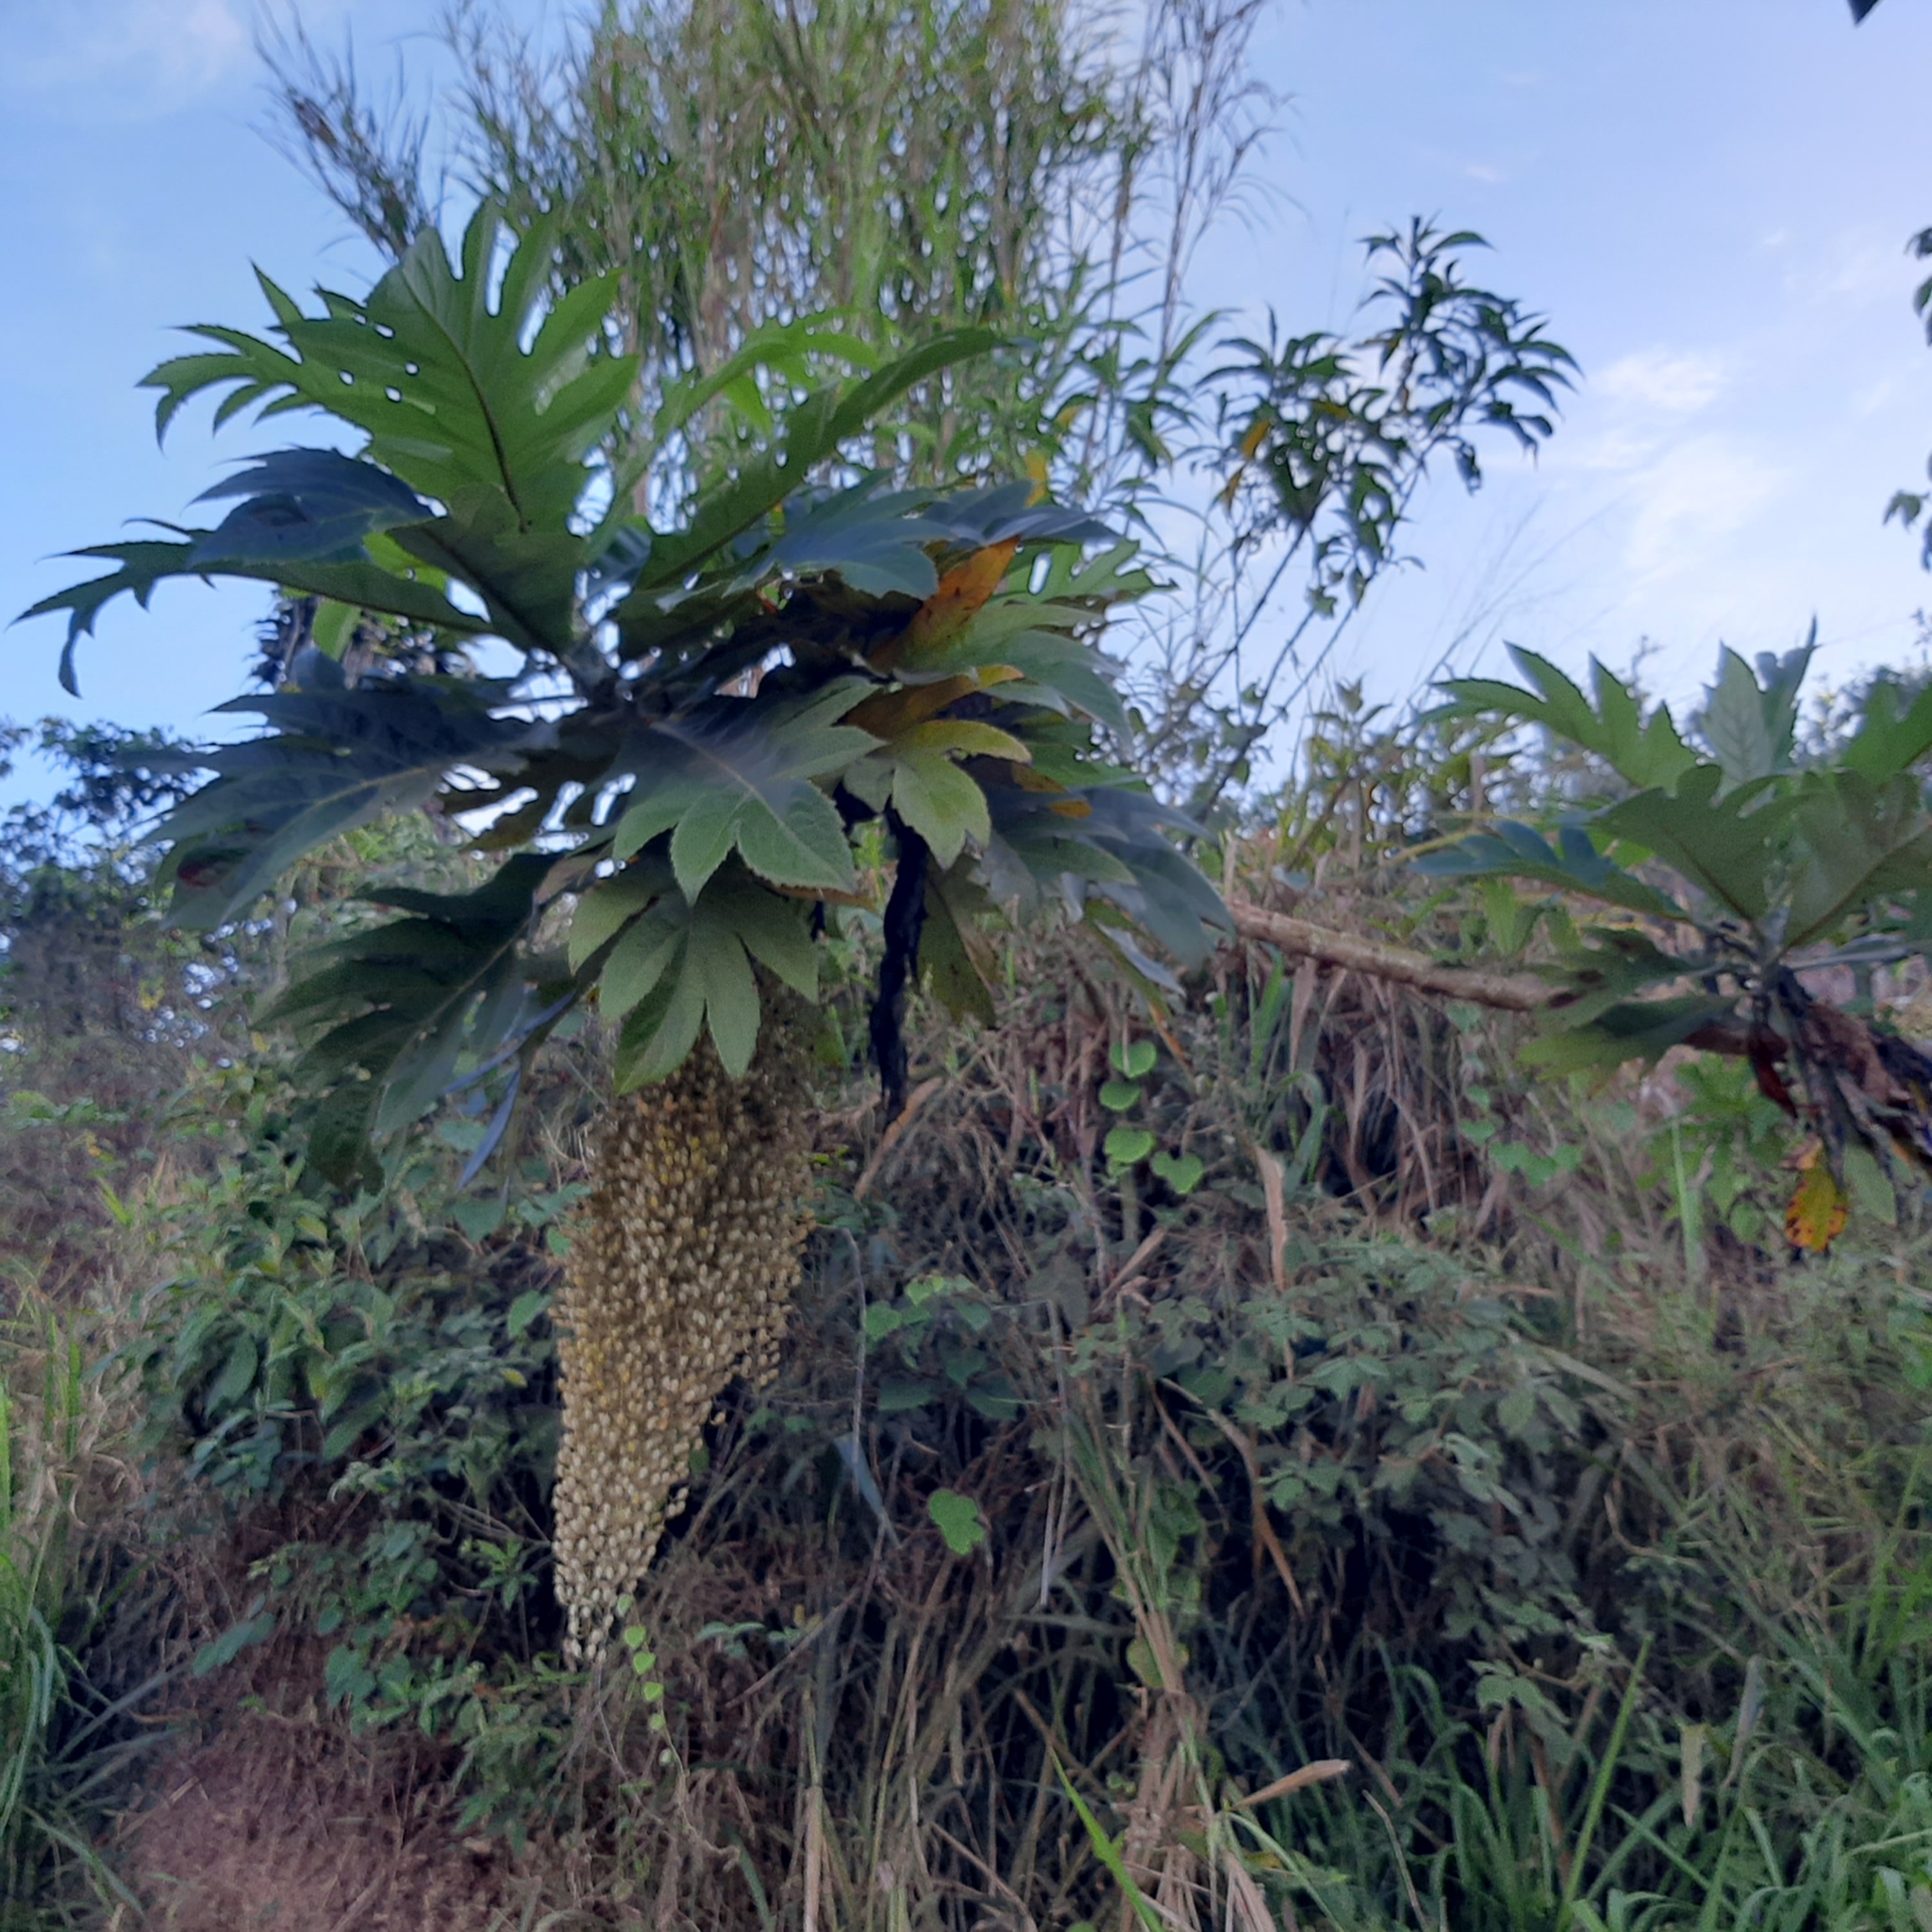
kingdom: Plantae
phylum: Tracheophyta
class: Magnoliopsida
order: Ranunculales
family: Papaveraceae
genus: Bocconia
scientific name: Bocconia frutescens
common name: Tree poppy
